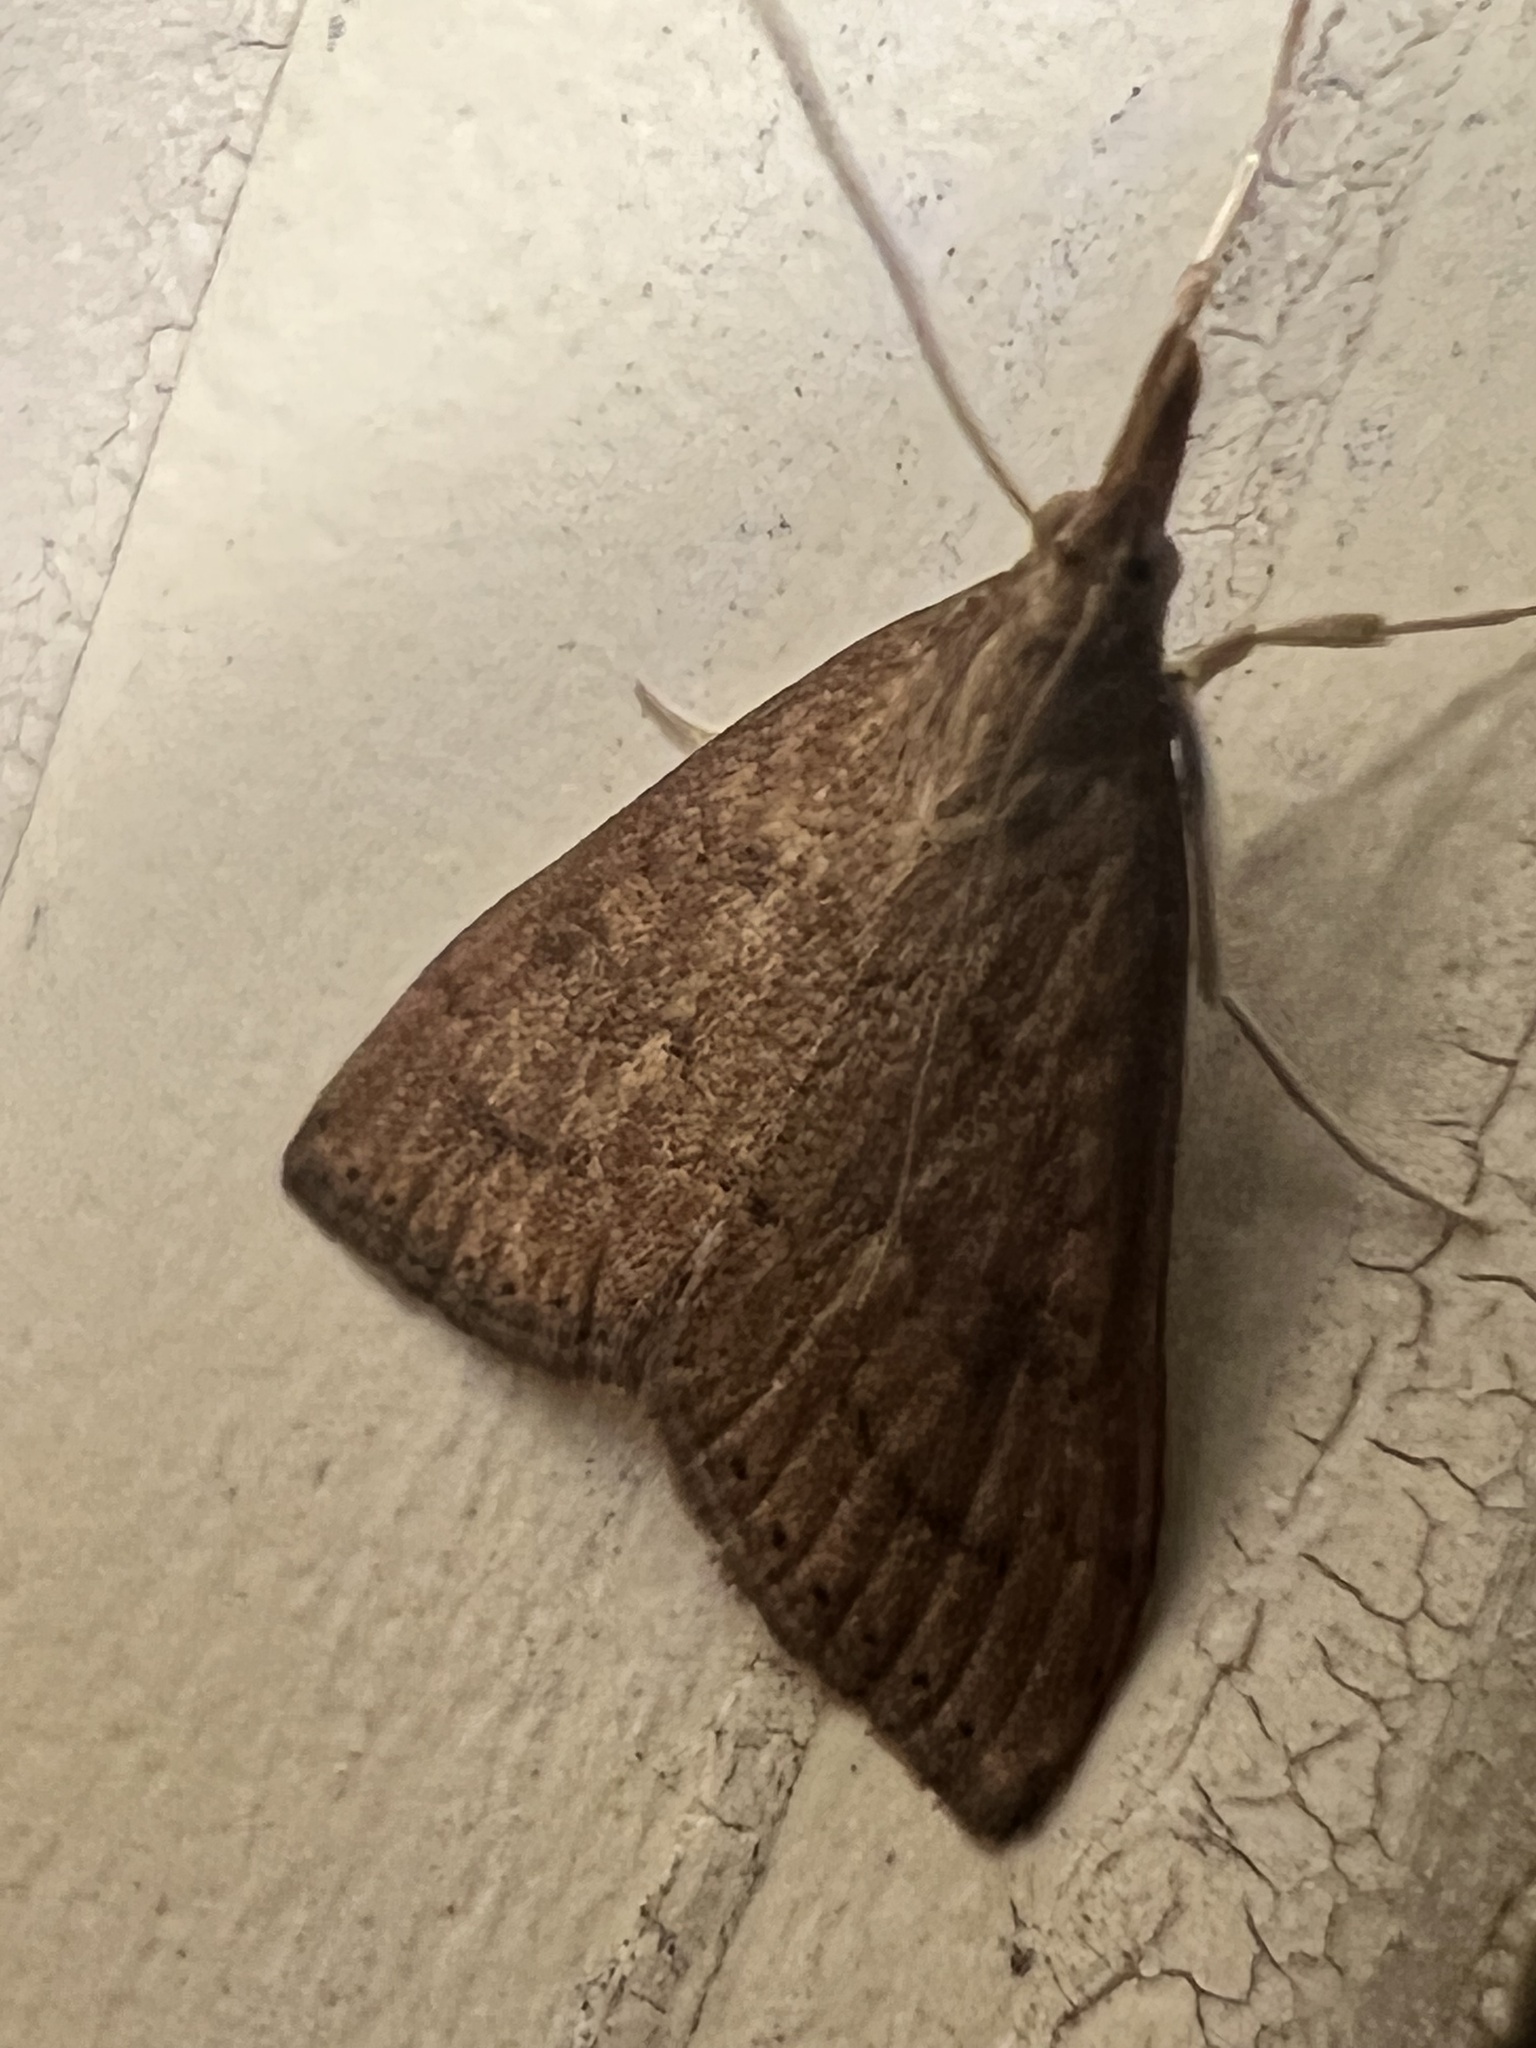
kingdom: Animalia
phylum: Arthropoda
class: Insecta
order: Lepidoptera
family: Crambidae
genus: Udea
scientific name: Udea rubigalis
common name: Celery leaftier moth
